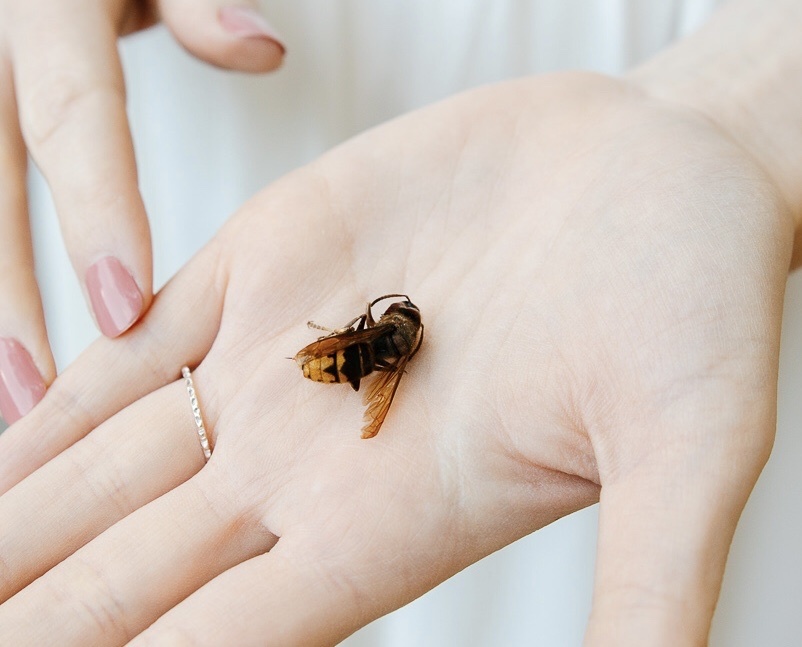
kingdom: Animalia
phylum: Arthropoda
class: Insecta
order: Hymenoptera
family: Vespidae
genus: Vespa
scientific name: Vespa crabro
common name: Hornet
